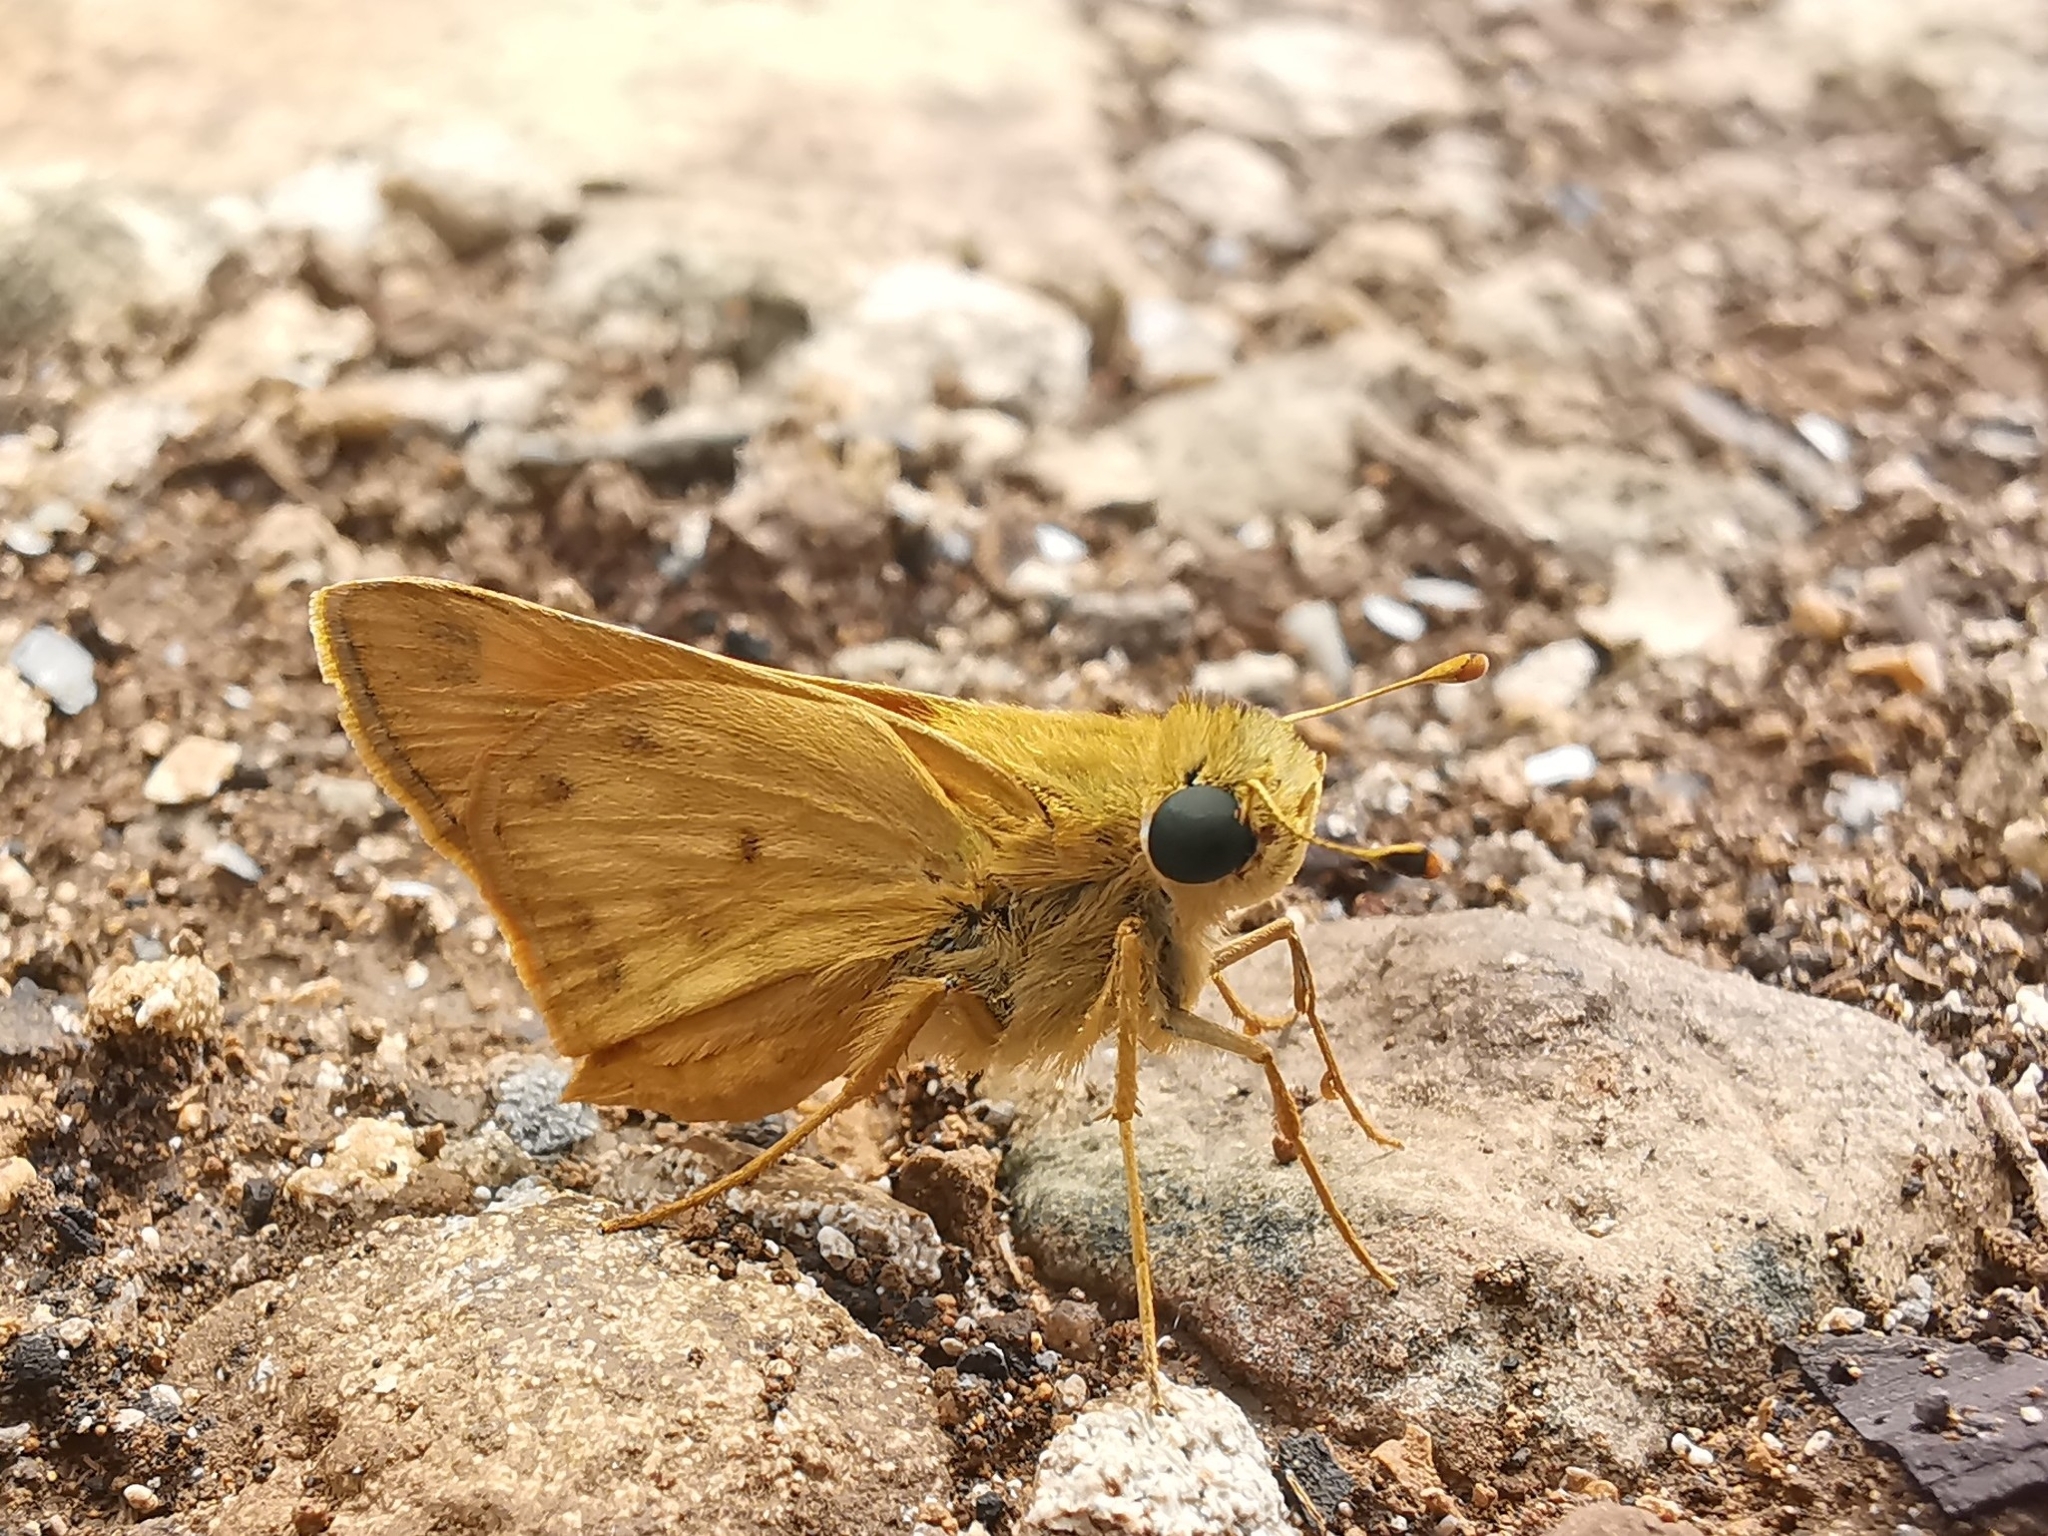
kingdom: Animalia
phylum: Arthropoda
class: Insecta
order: Lepidoptera
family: Hesperiidae
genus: Hylephila
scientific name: Hylephila phyleus
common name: Fiery skipper
